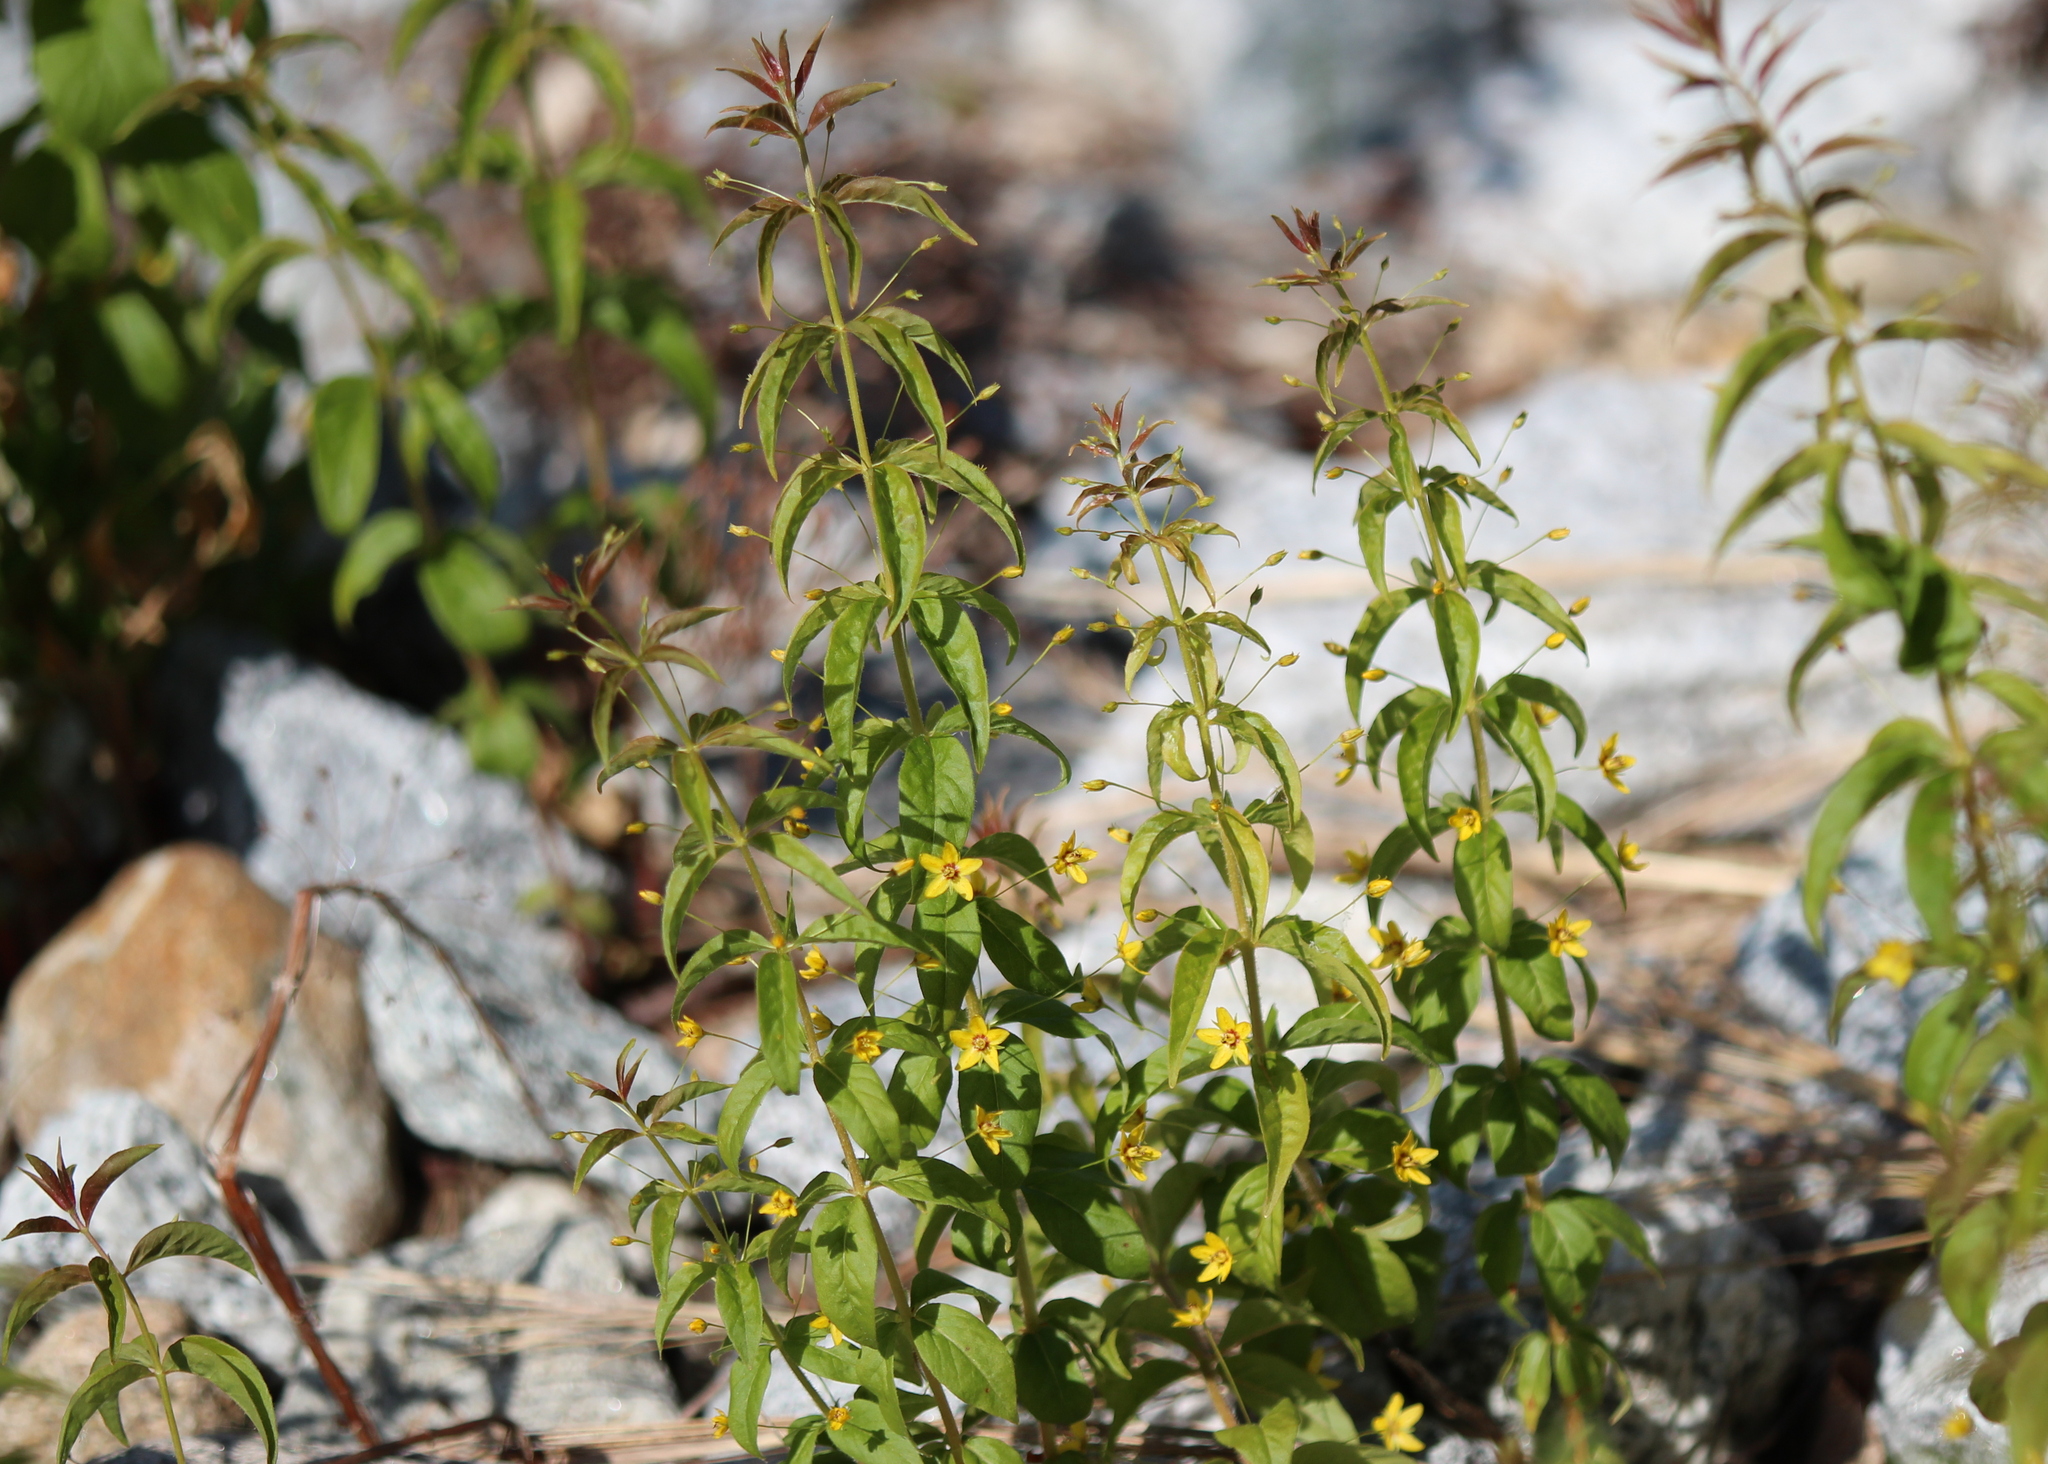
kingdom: Plantae
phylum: Tracheophyta
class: Magnoliopsida
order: Ericales
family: Primulaceae
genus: Lysimachia
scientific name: Lysimachia quadrifolia
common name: Whorled loosestrife
